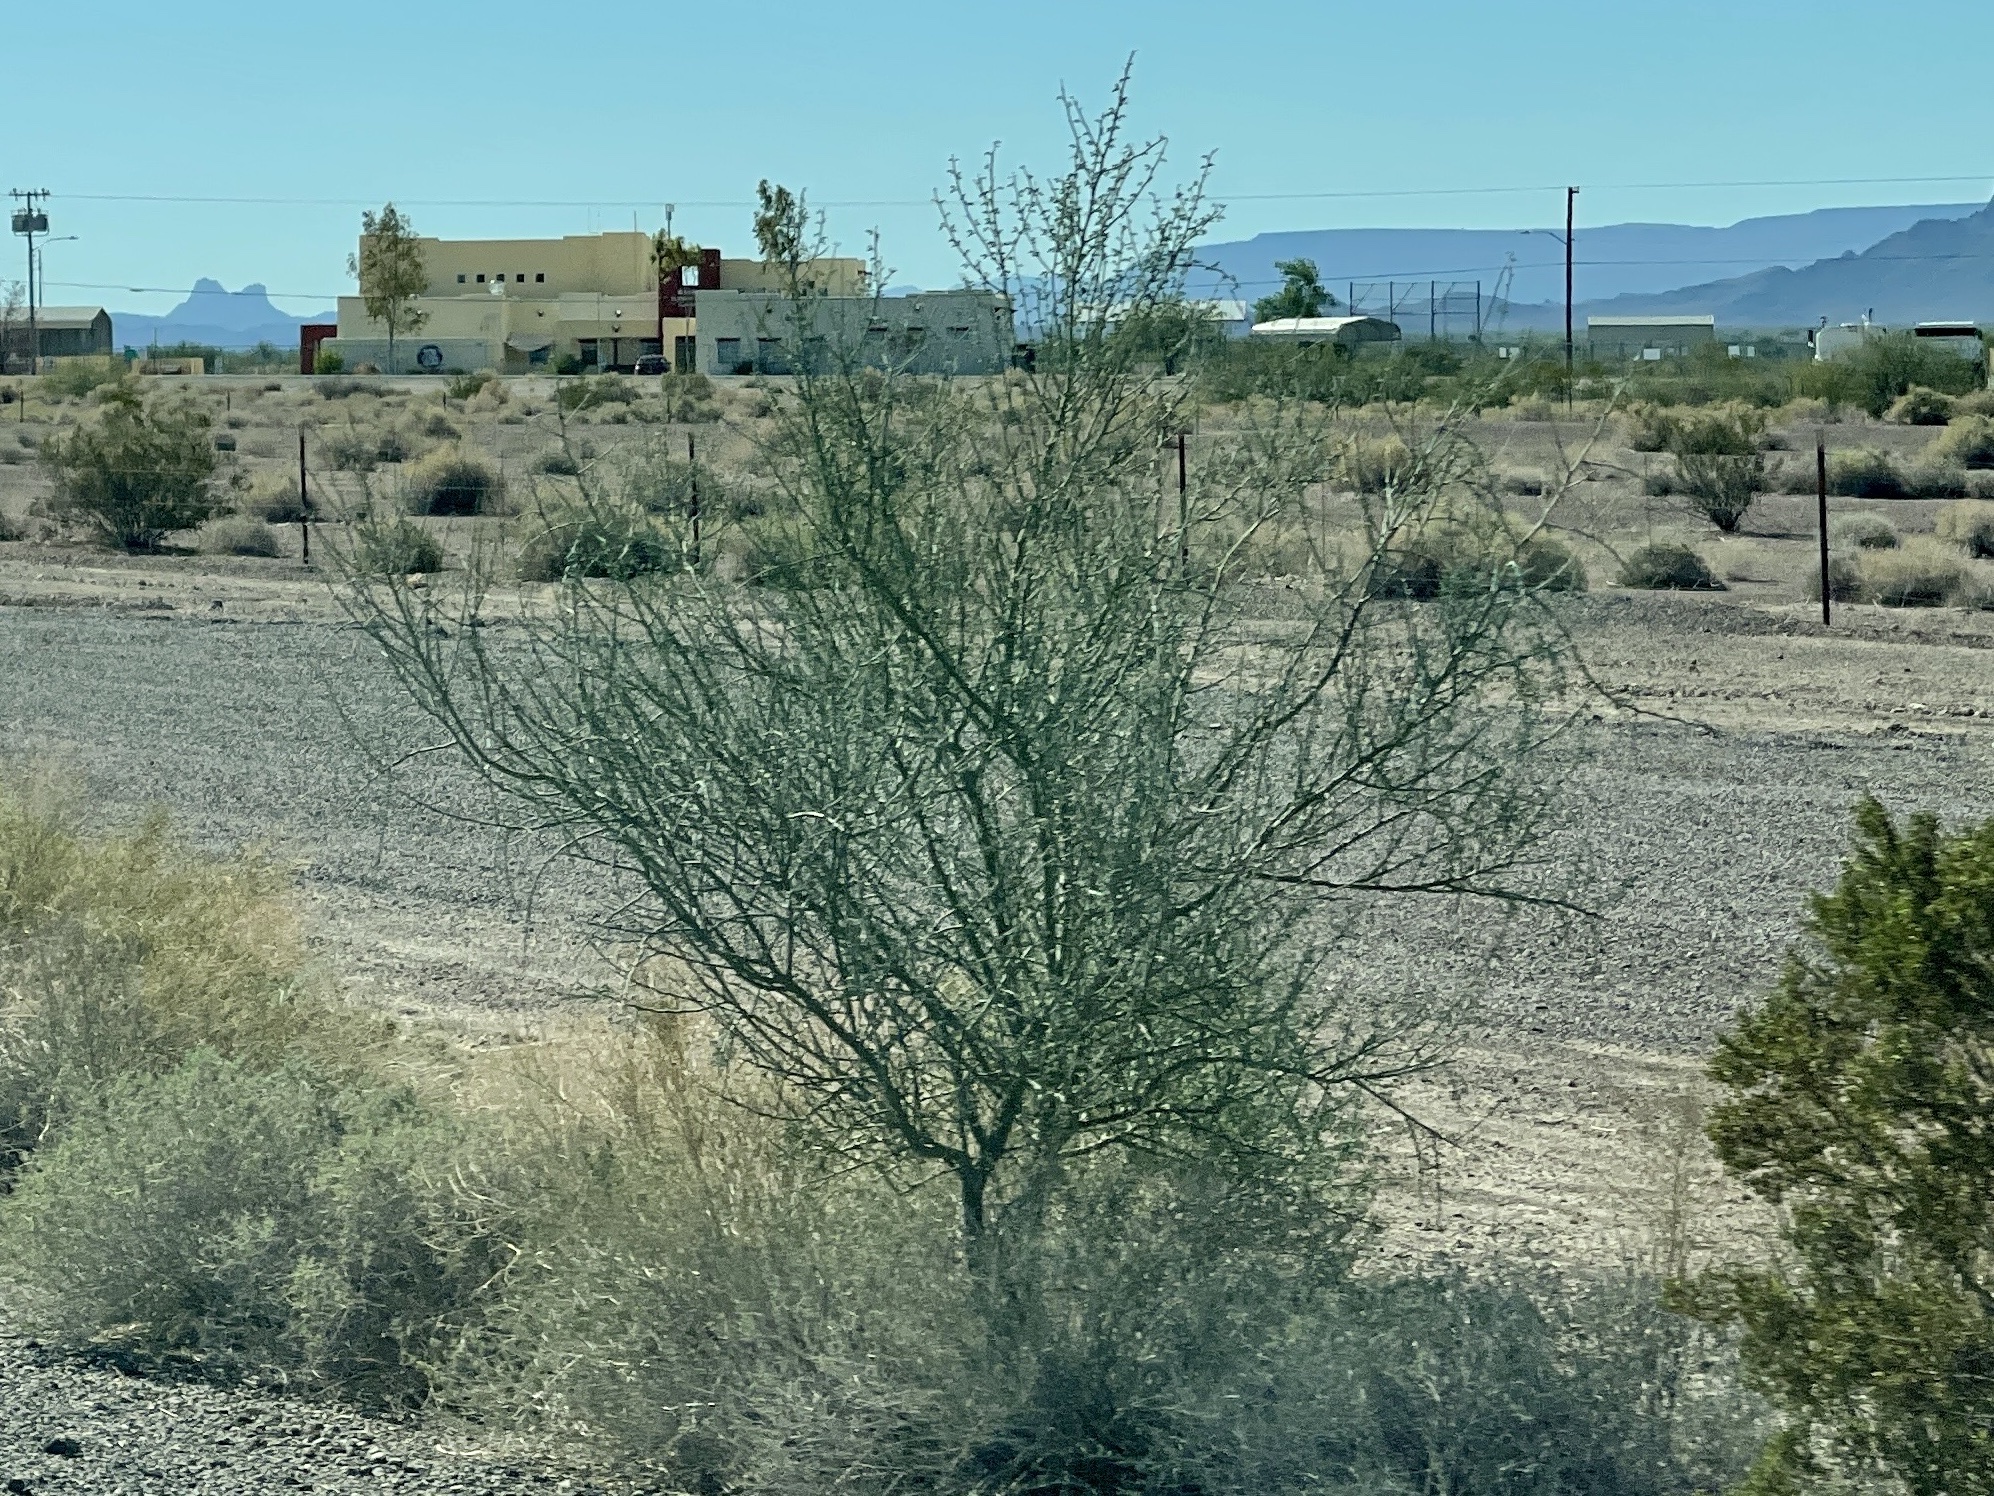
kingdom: Plantae
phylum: Tracheophyta
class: Magnoliopsida
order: Fabales
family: Fabaceae
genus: Parkinsonia
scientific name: Parkinsonia florida
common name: Blue paloverde
